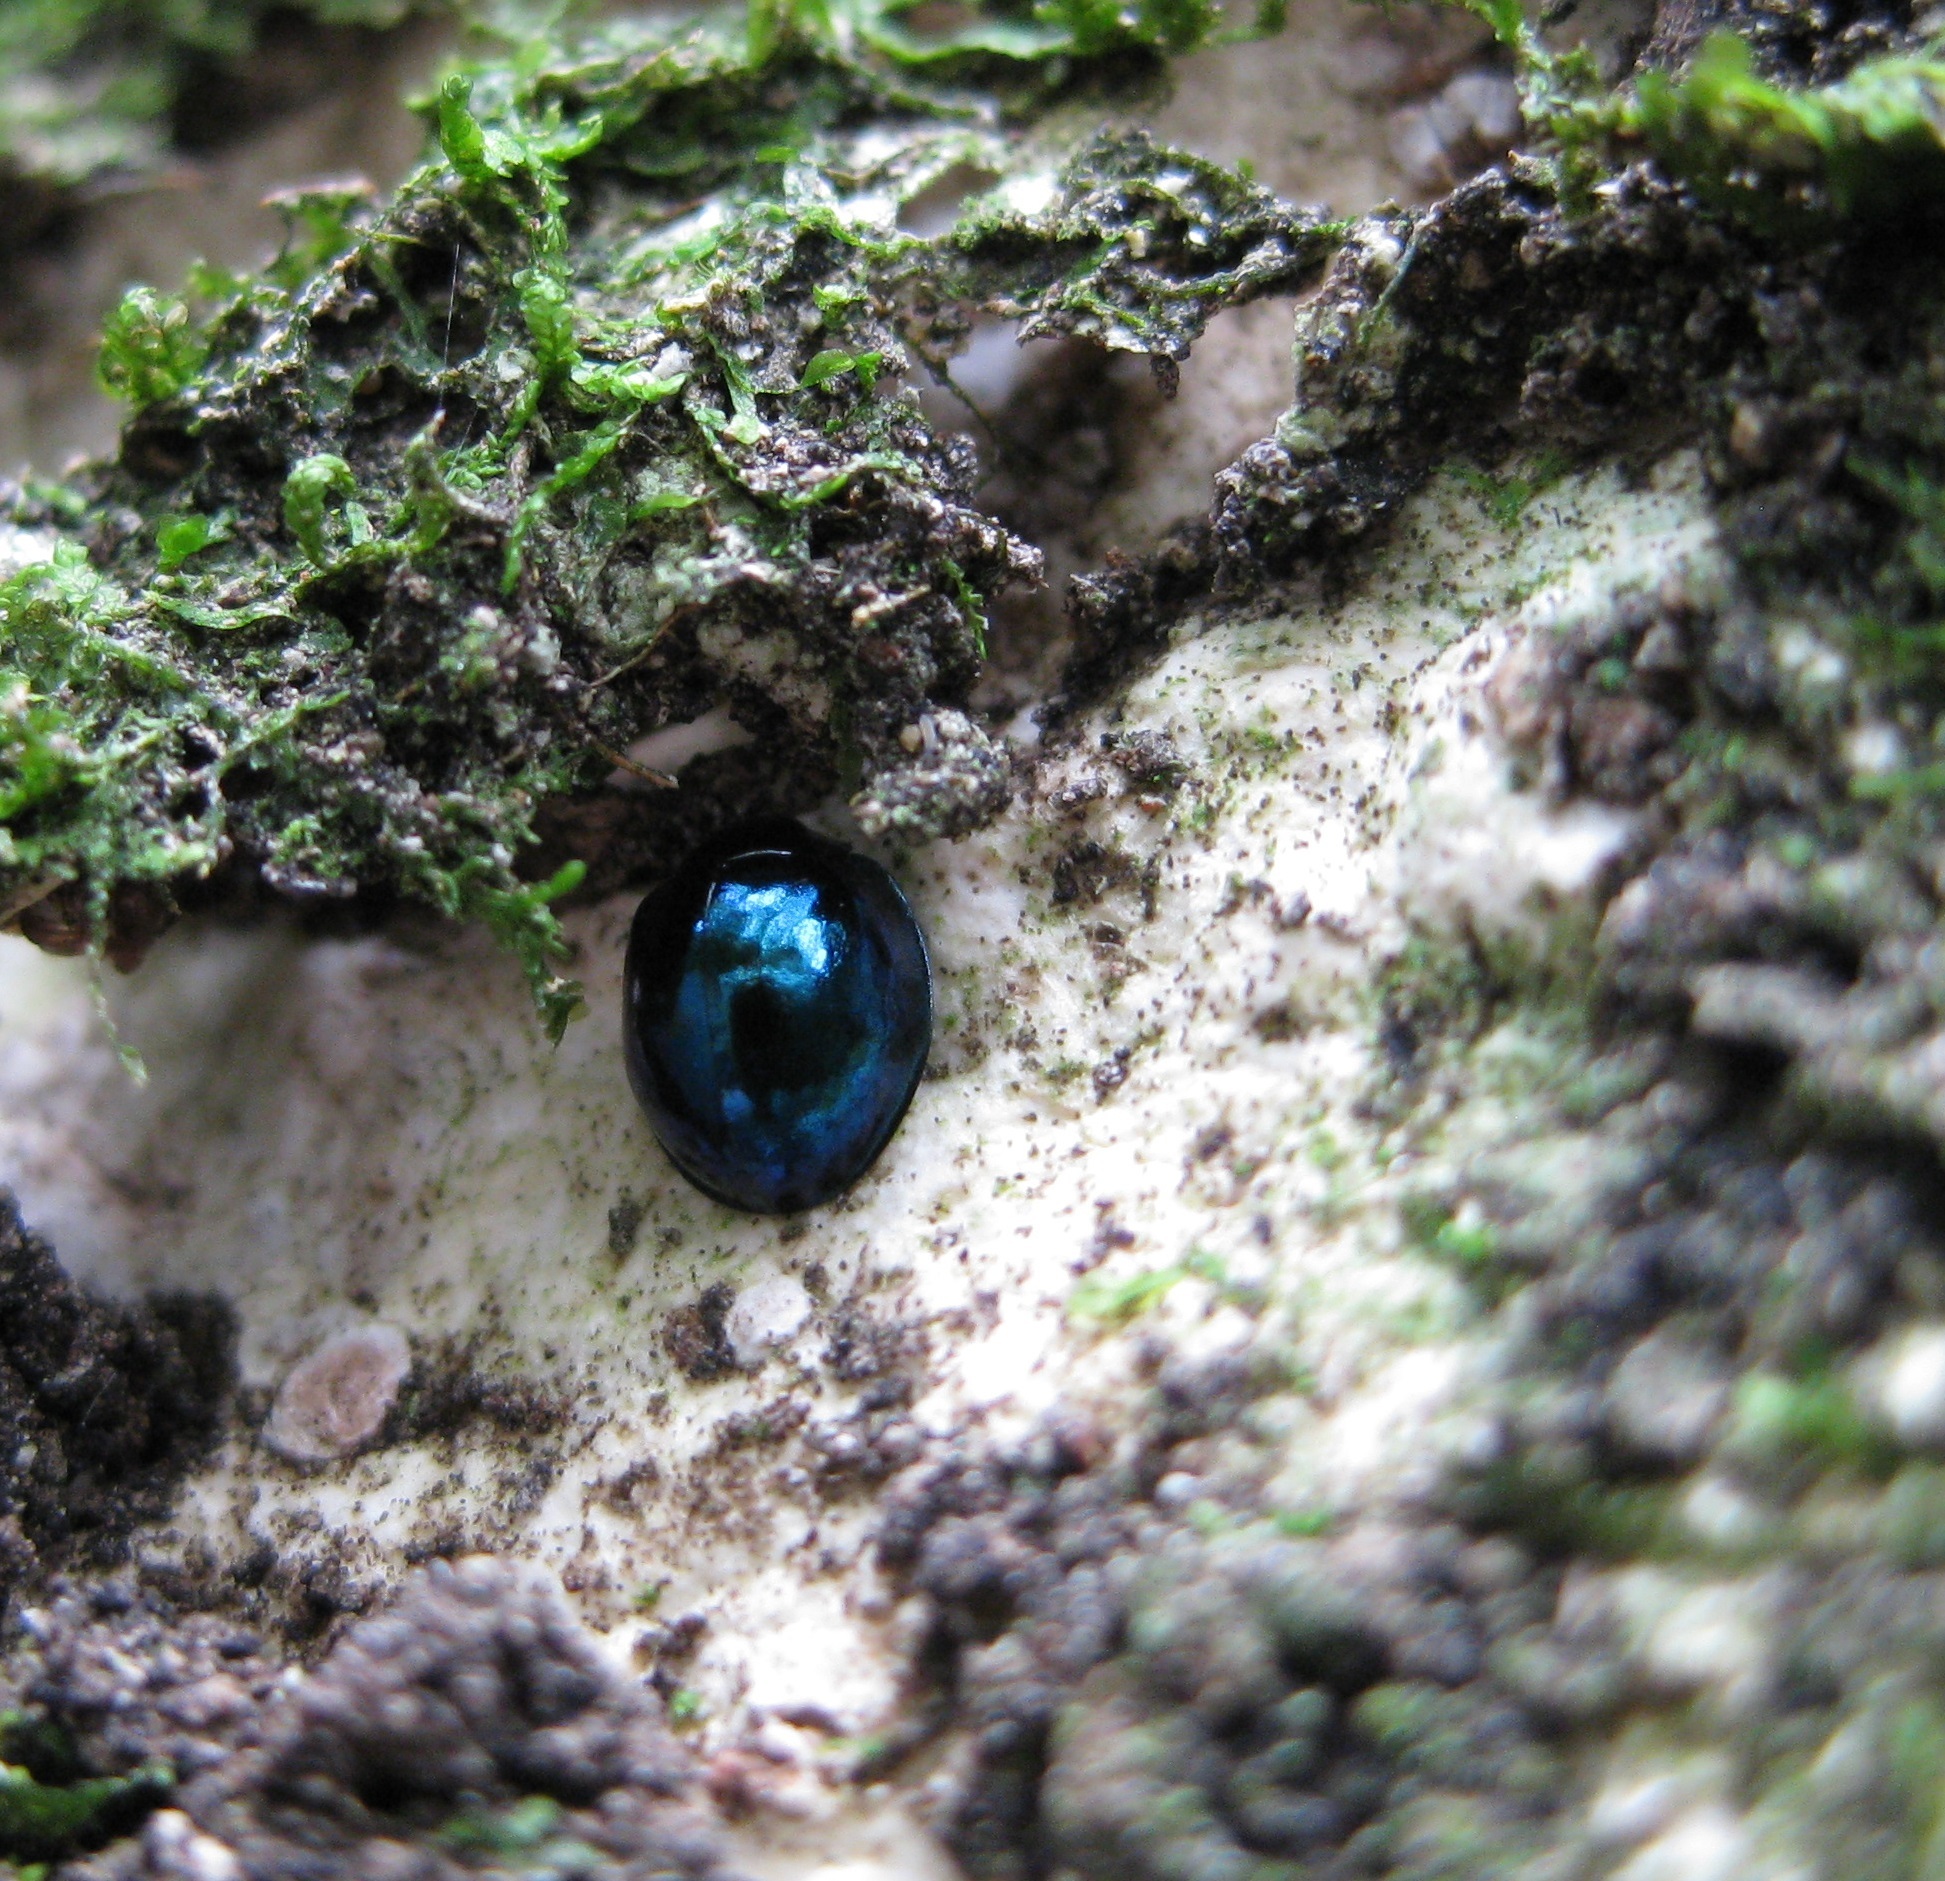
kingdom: Animalia
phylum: Arthropoda
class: Insecta
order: Coleoptera
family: Coccinellidae
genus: Halmus
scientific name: Halmus chalybeus
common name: Steel blue ladybird beetle
